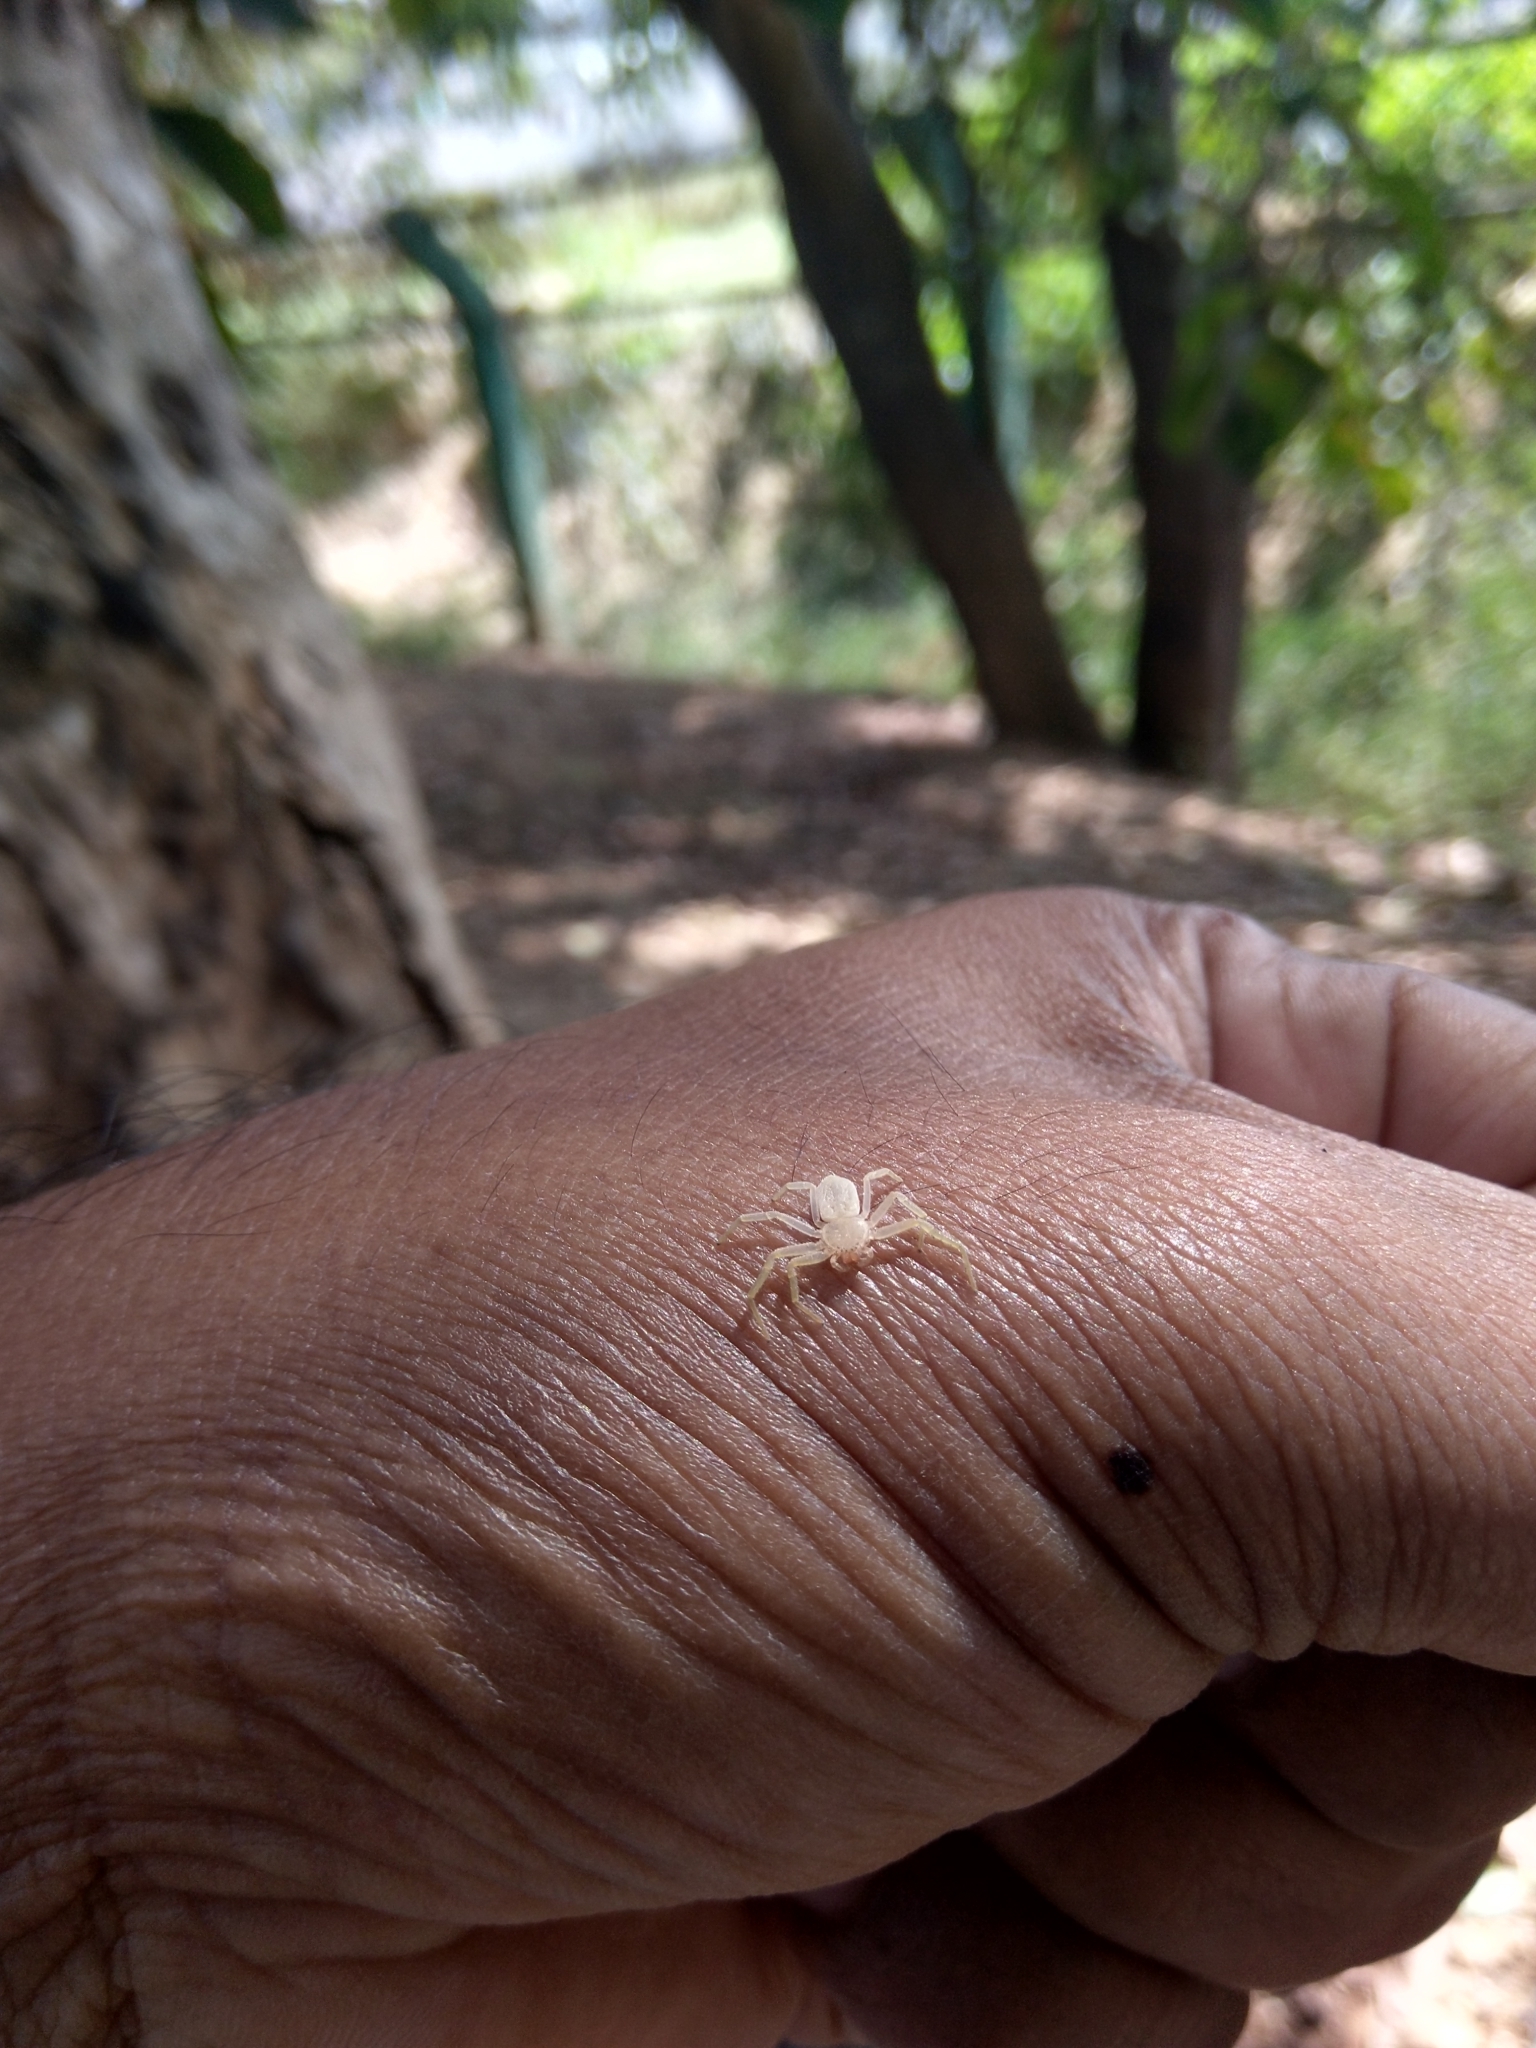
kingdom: Animalia
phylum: Arthropoda
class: Arachnida
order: Araneae
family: Philodromidae
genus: Psellonus
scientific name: Psellonus planus
